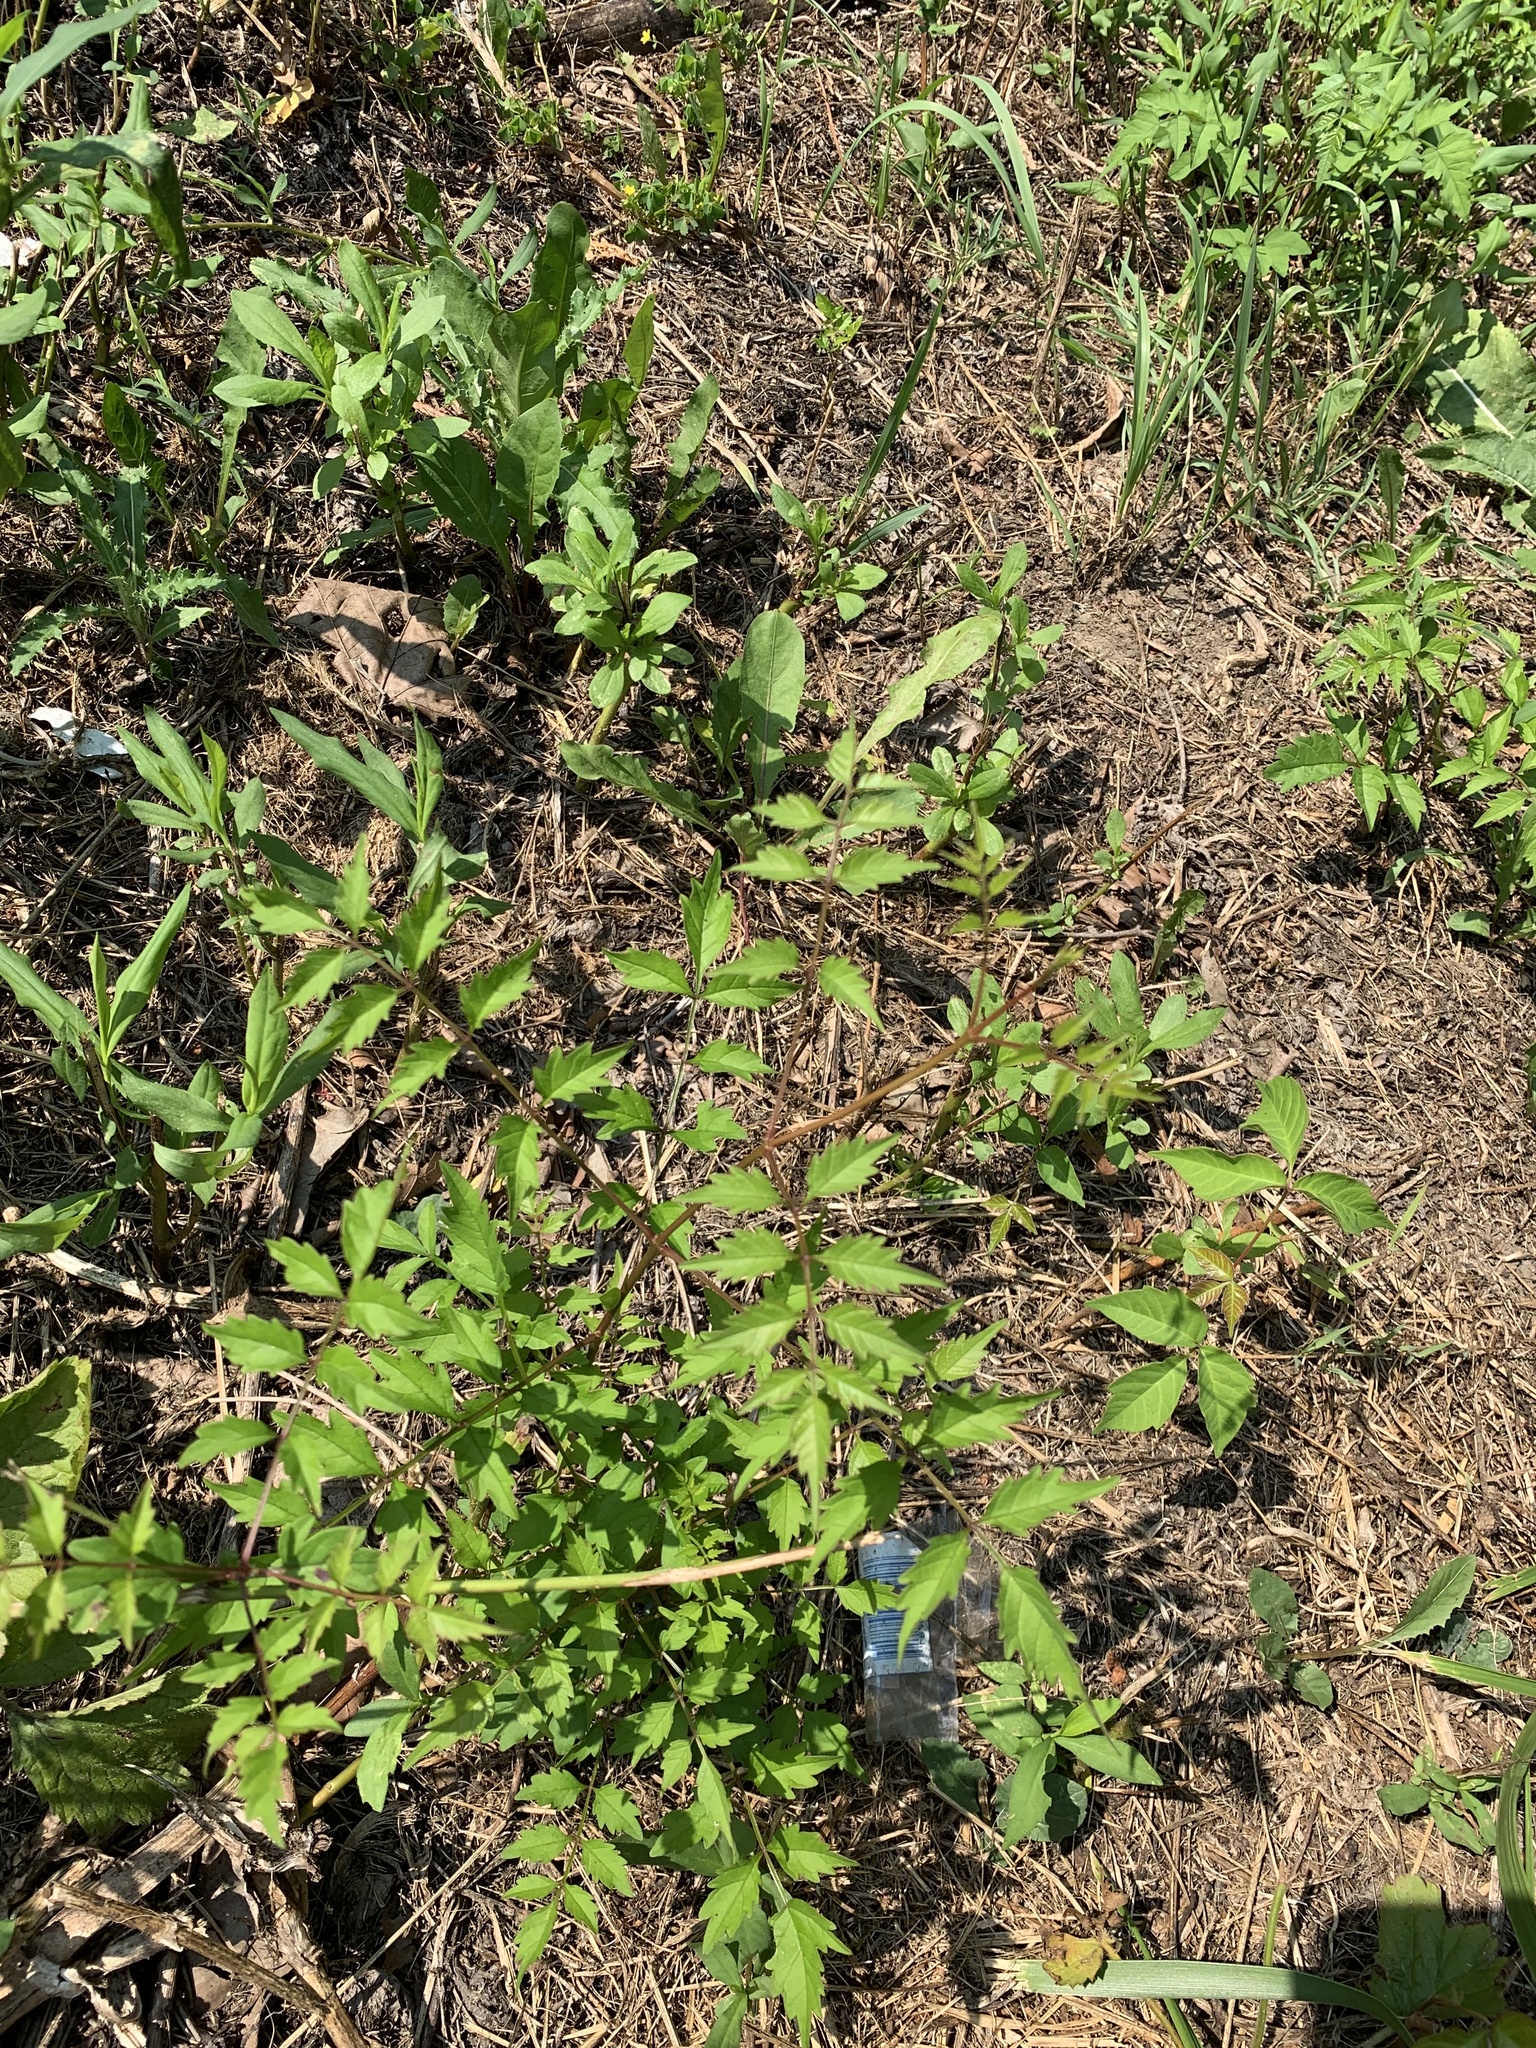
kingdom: Plantae
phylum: Tracheophyta
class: Magnoliopsida
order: Lamiales
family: Bignoniaceae
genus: Campsis
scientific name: Campsis radicans
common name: Trumpet-creeper
